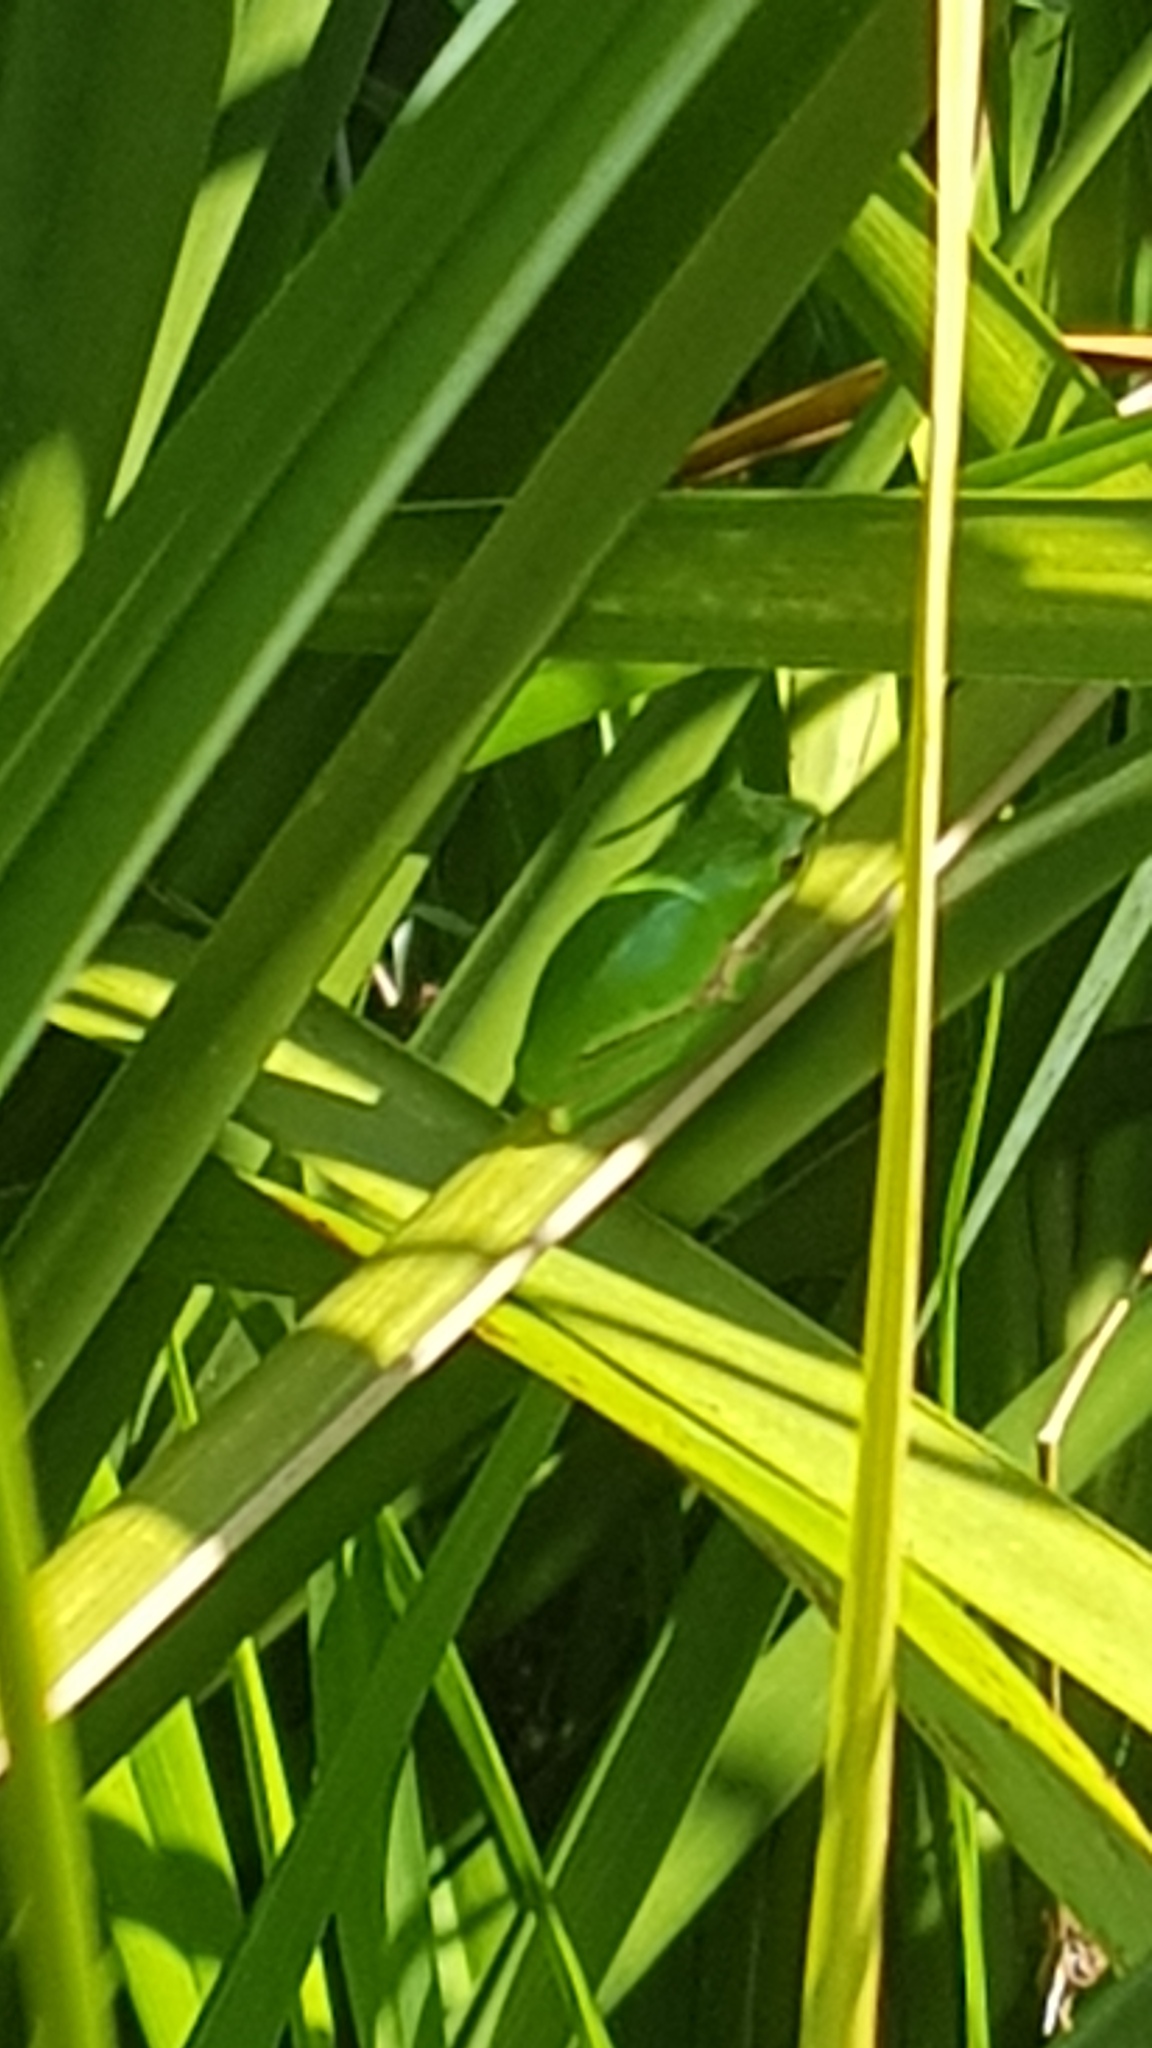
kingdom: Animalia
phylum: Chordata
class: Amphibia
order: Anura
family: Pelodryadidae
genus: Litoria
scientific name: Litoria fallax
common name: Eastern dwarf treefrog
